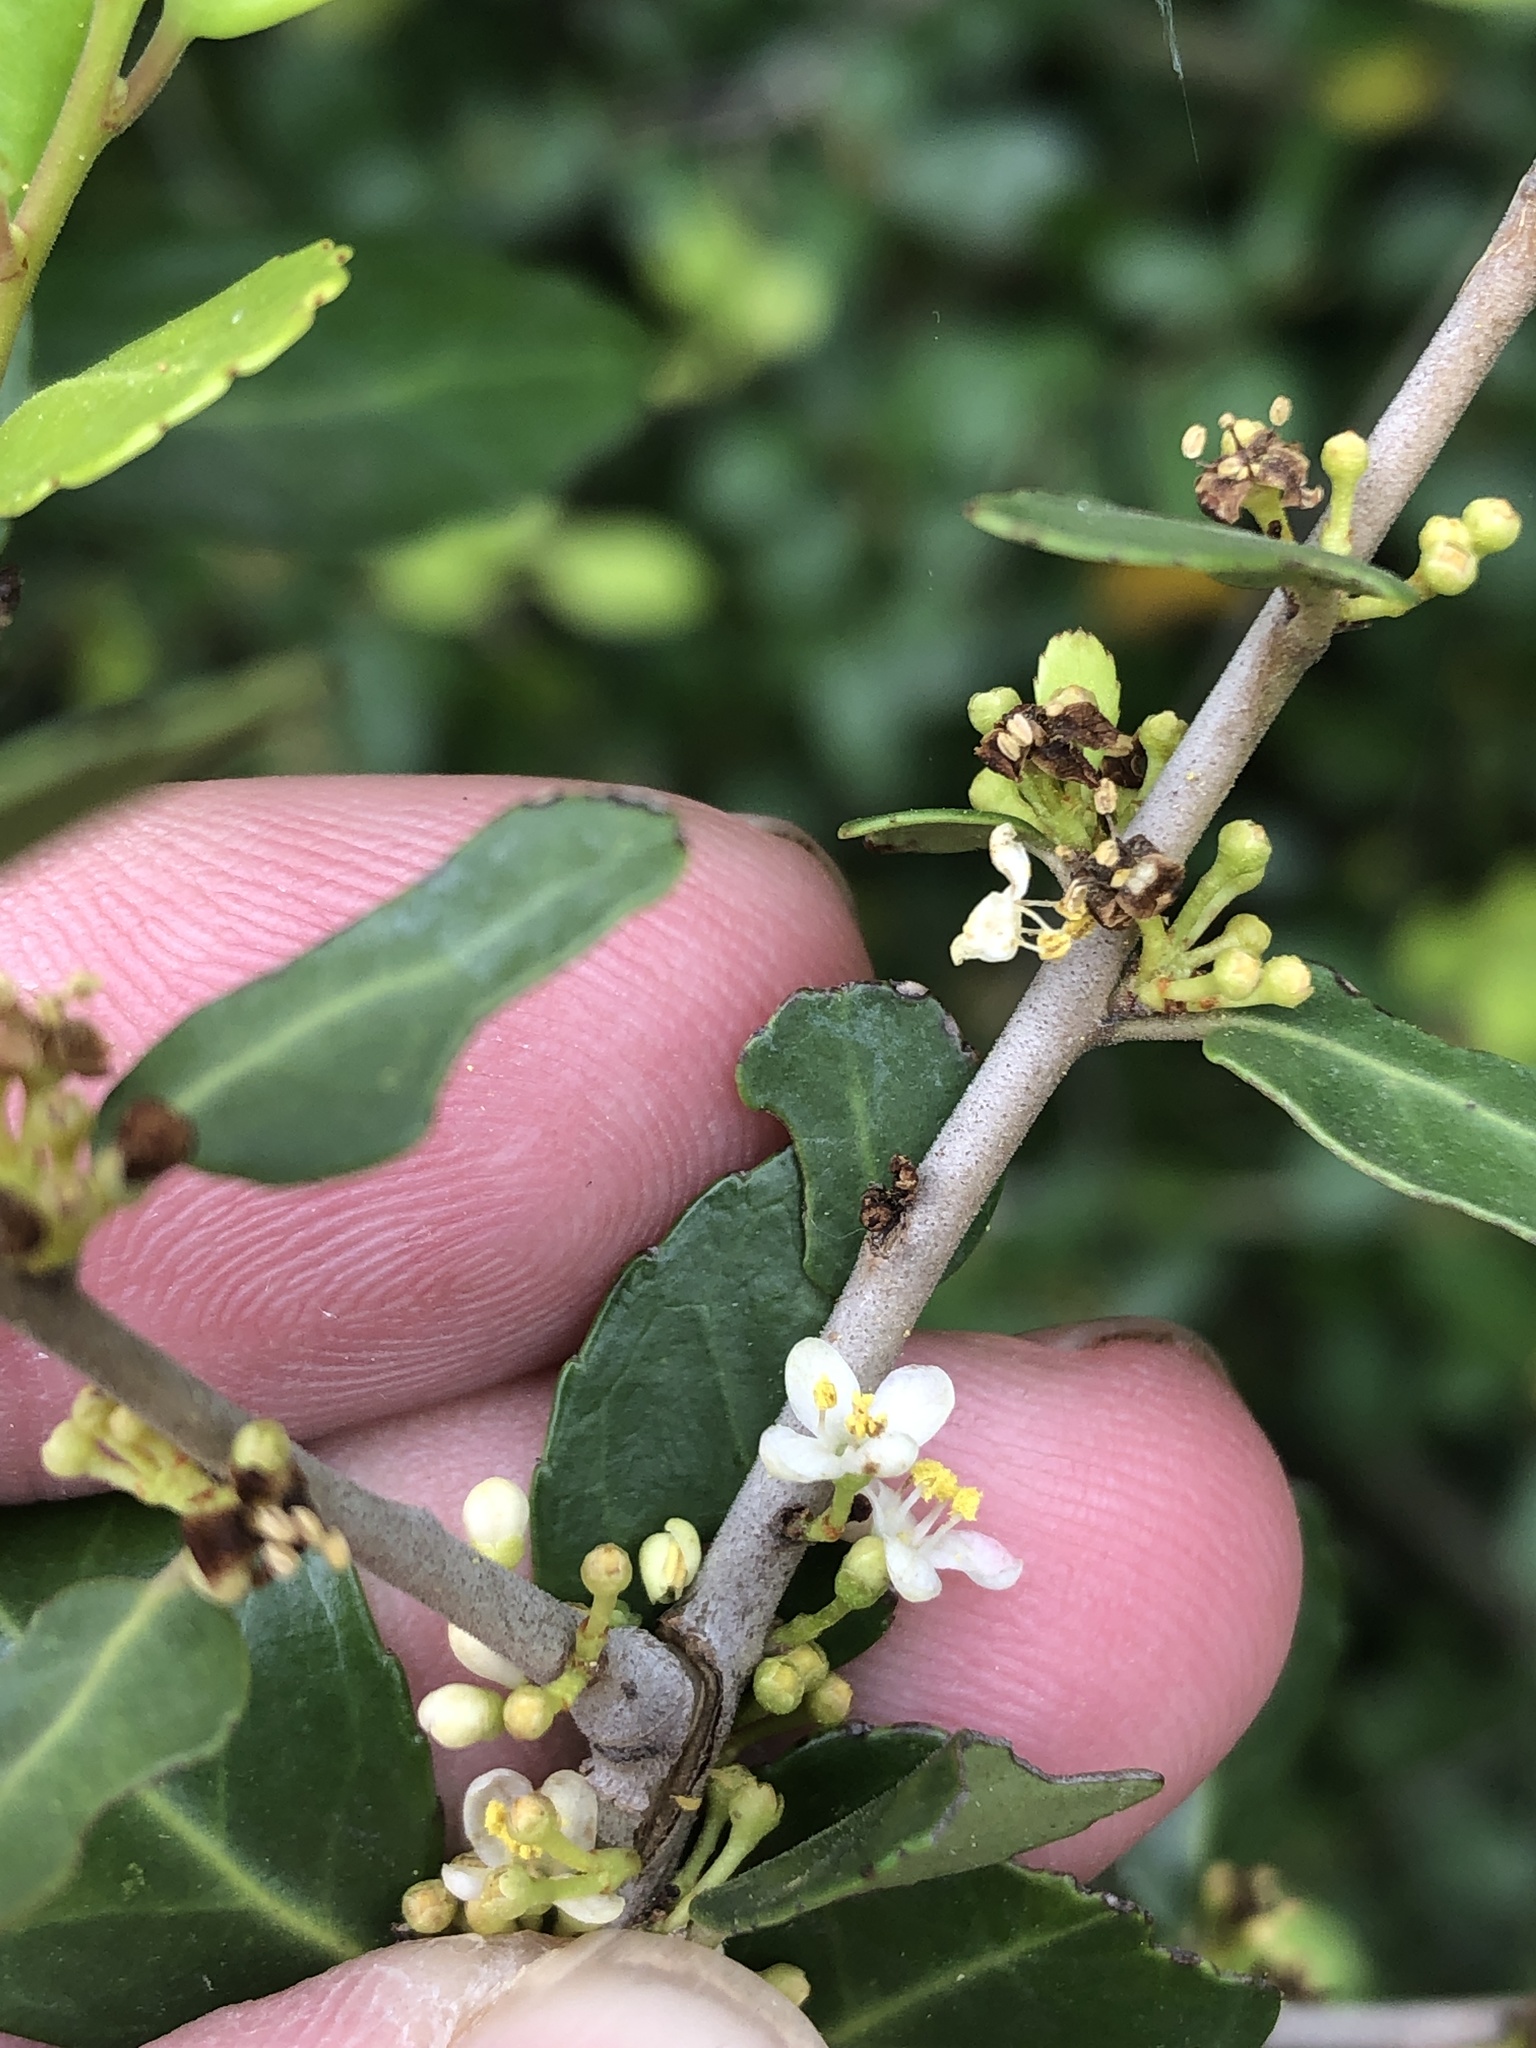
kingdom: Plantae
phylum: Tracheophyta
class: Magnoliopsida
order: Aquifoliales
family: Aquifoliaceae
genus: Ilex
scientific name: Ilex vomitoria
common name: Yaupon holly
